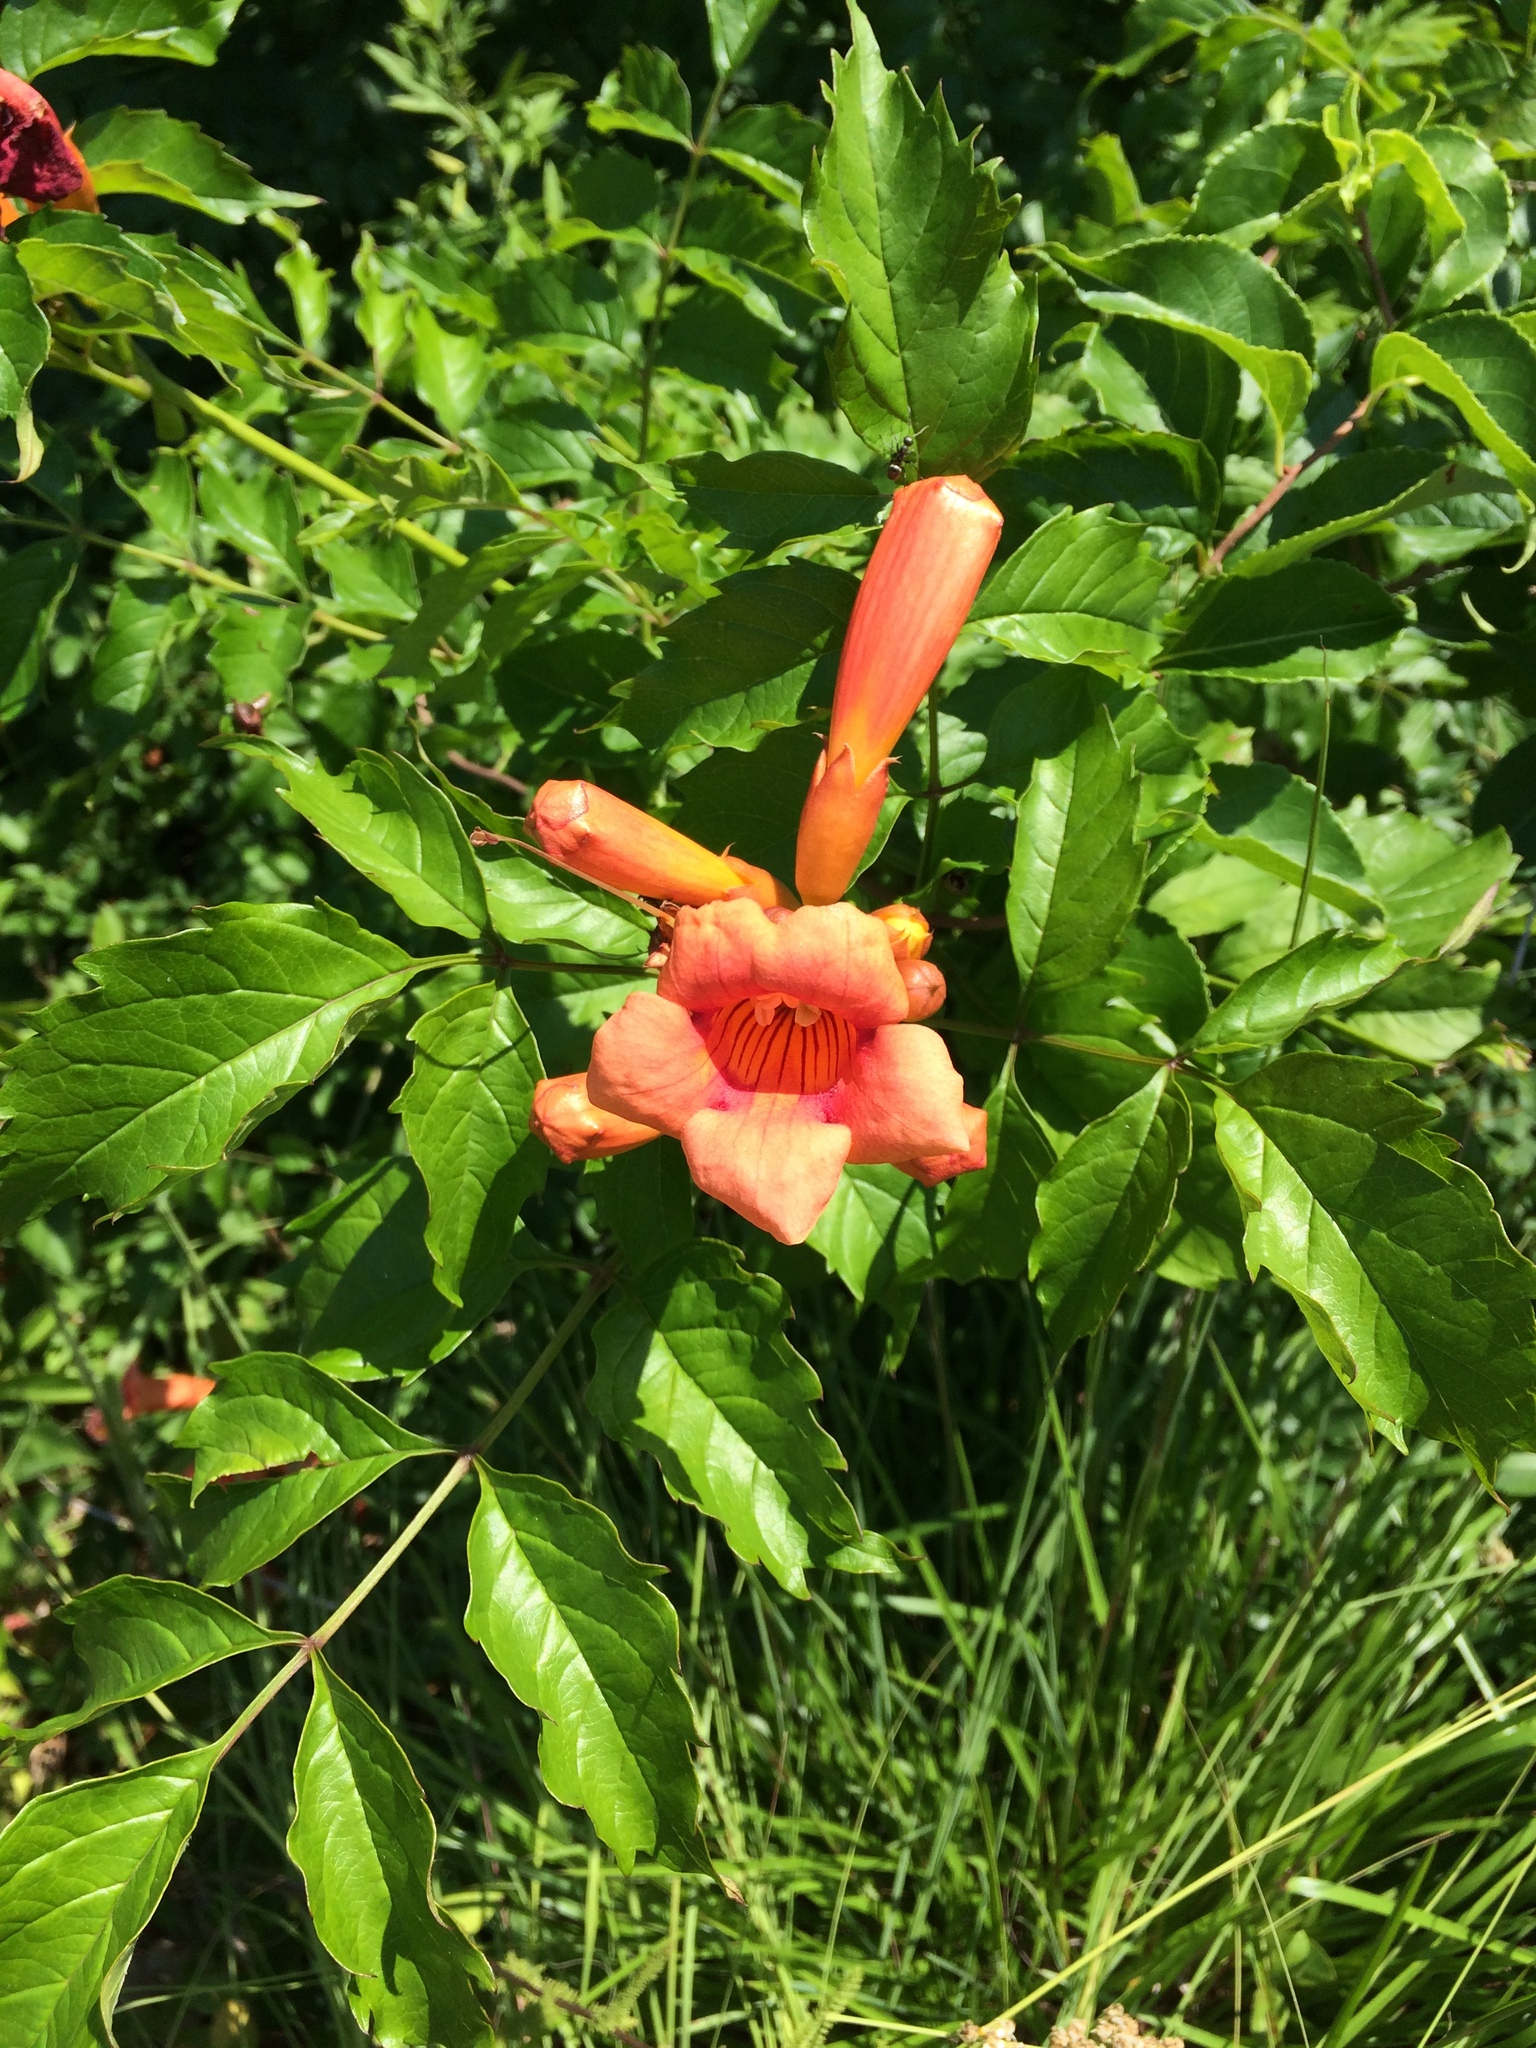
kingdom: Plantae
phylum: Tracheophyta
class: Magnoliopsida
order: Lamiales
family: Bignoniaceae
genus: Campsis
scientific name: Campsis radicans
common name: Trumpet-creeper
